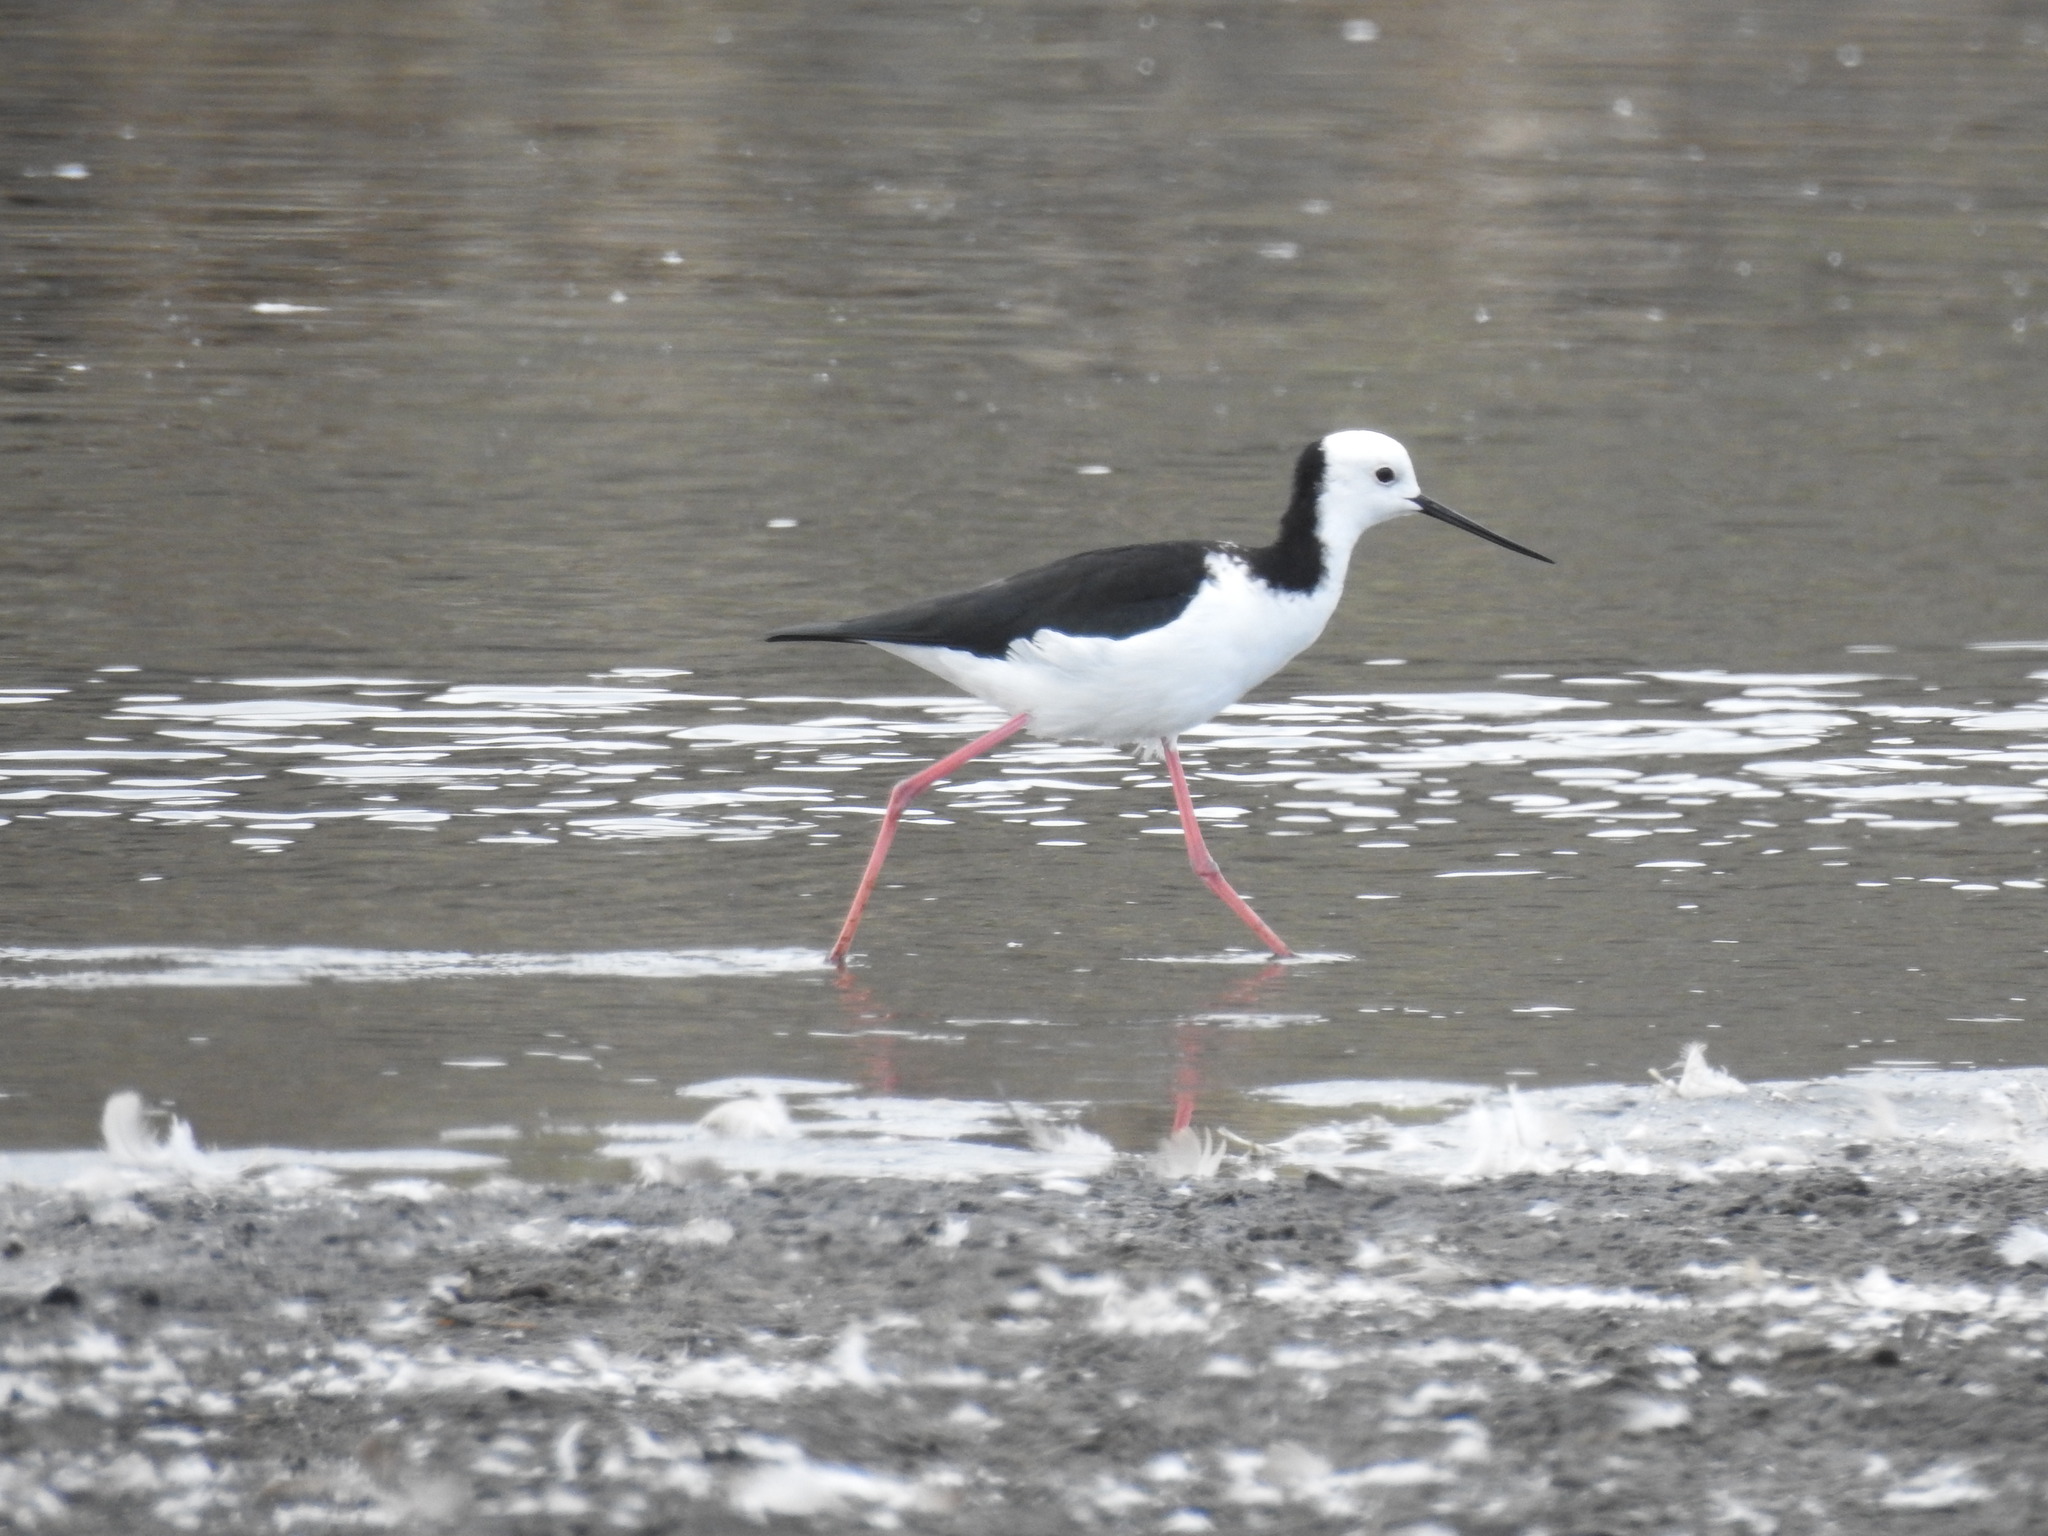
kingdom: Animalia
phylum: Chordata
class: Aves
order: Charadriiformes
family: Recurvirostridae
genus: Himantopus
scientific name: Himantopus leucocephalus
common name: White-headed stilt
